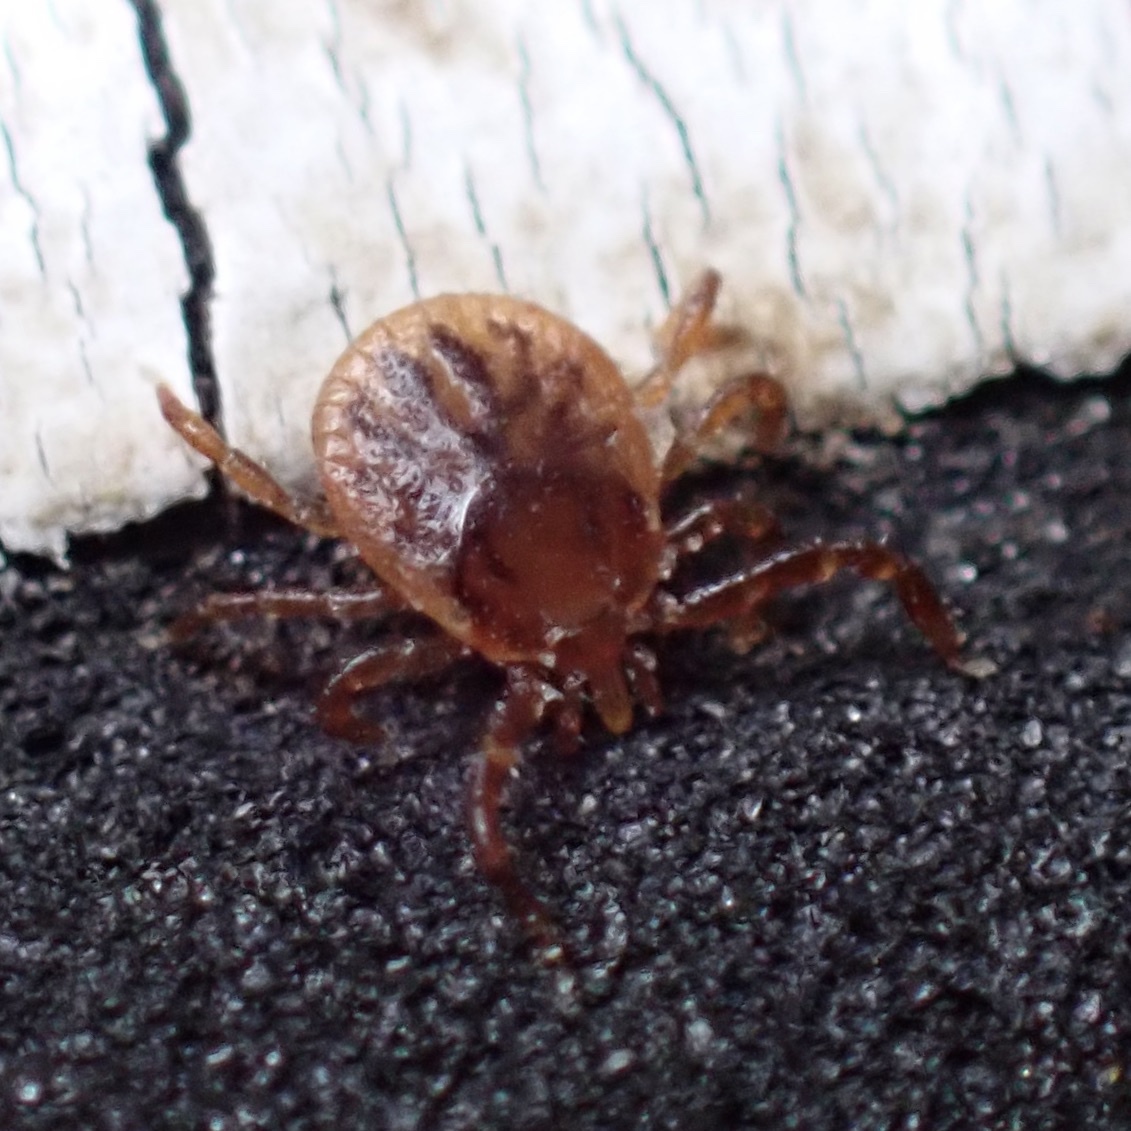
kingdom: Animalia
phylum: Arthropoda
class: Arachnida
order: Ixodida
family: Ixodidae
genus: Amblyomma
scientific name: Amblyomma americanum
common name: Lone star tick
